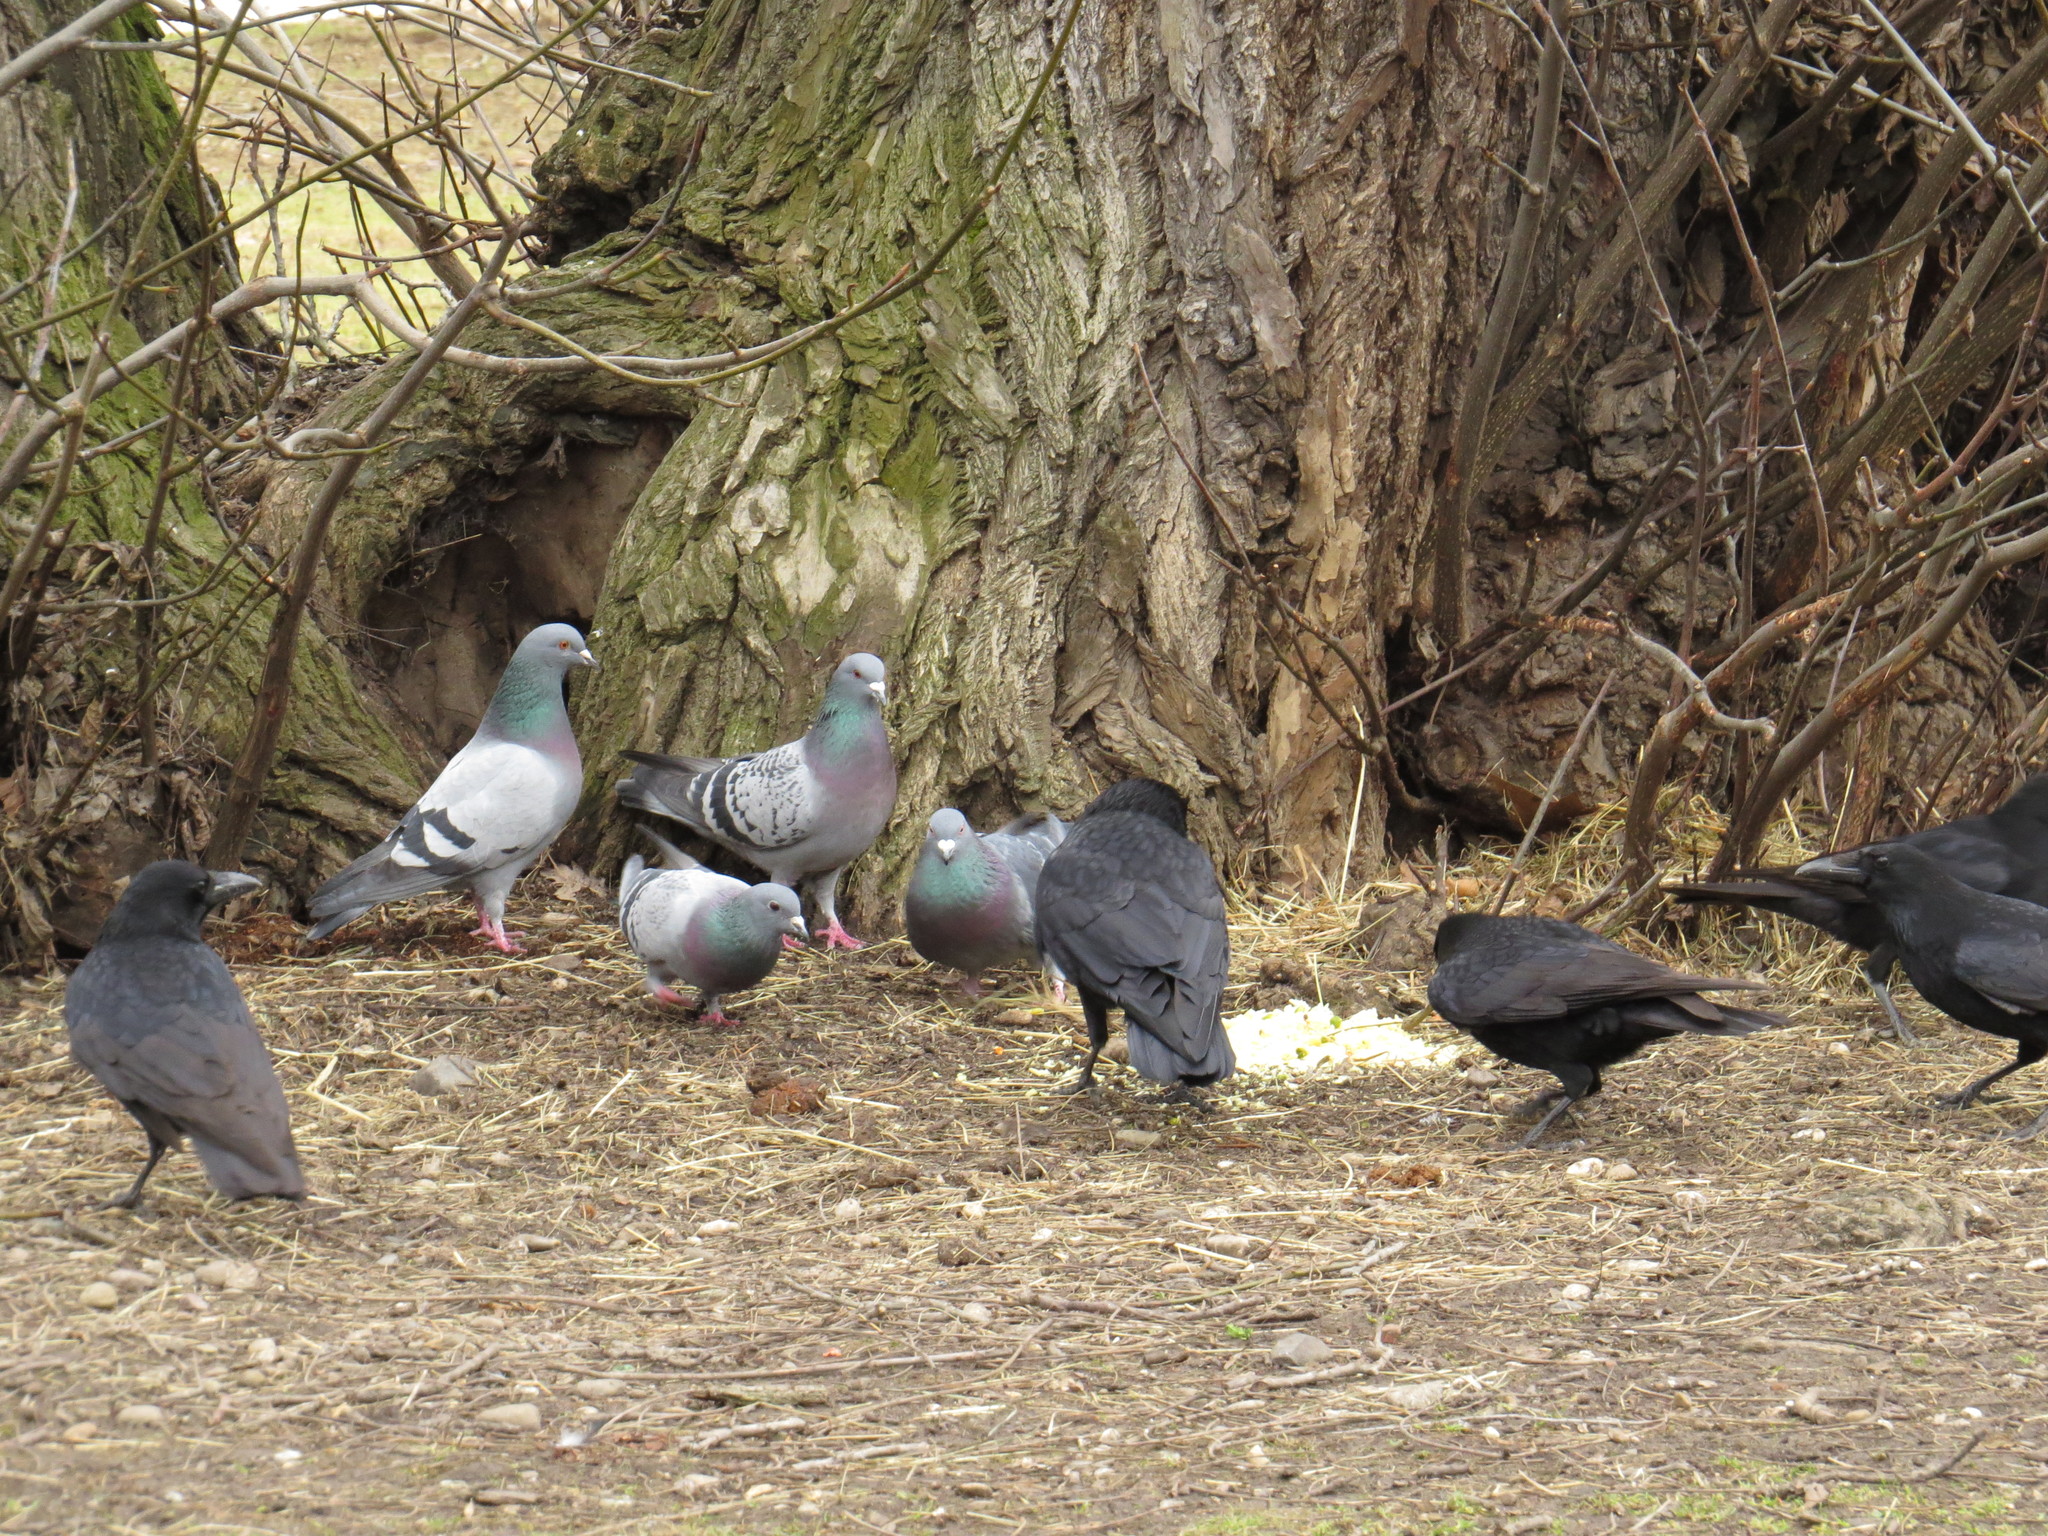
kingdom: Animalia
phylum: Chordata
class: Aves
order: Passeriformes
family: Corvidae
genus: Corvus
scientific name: Corvus corone
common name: Carrion crow
